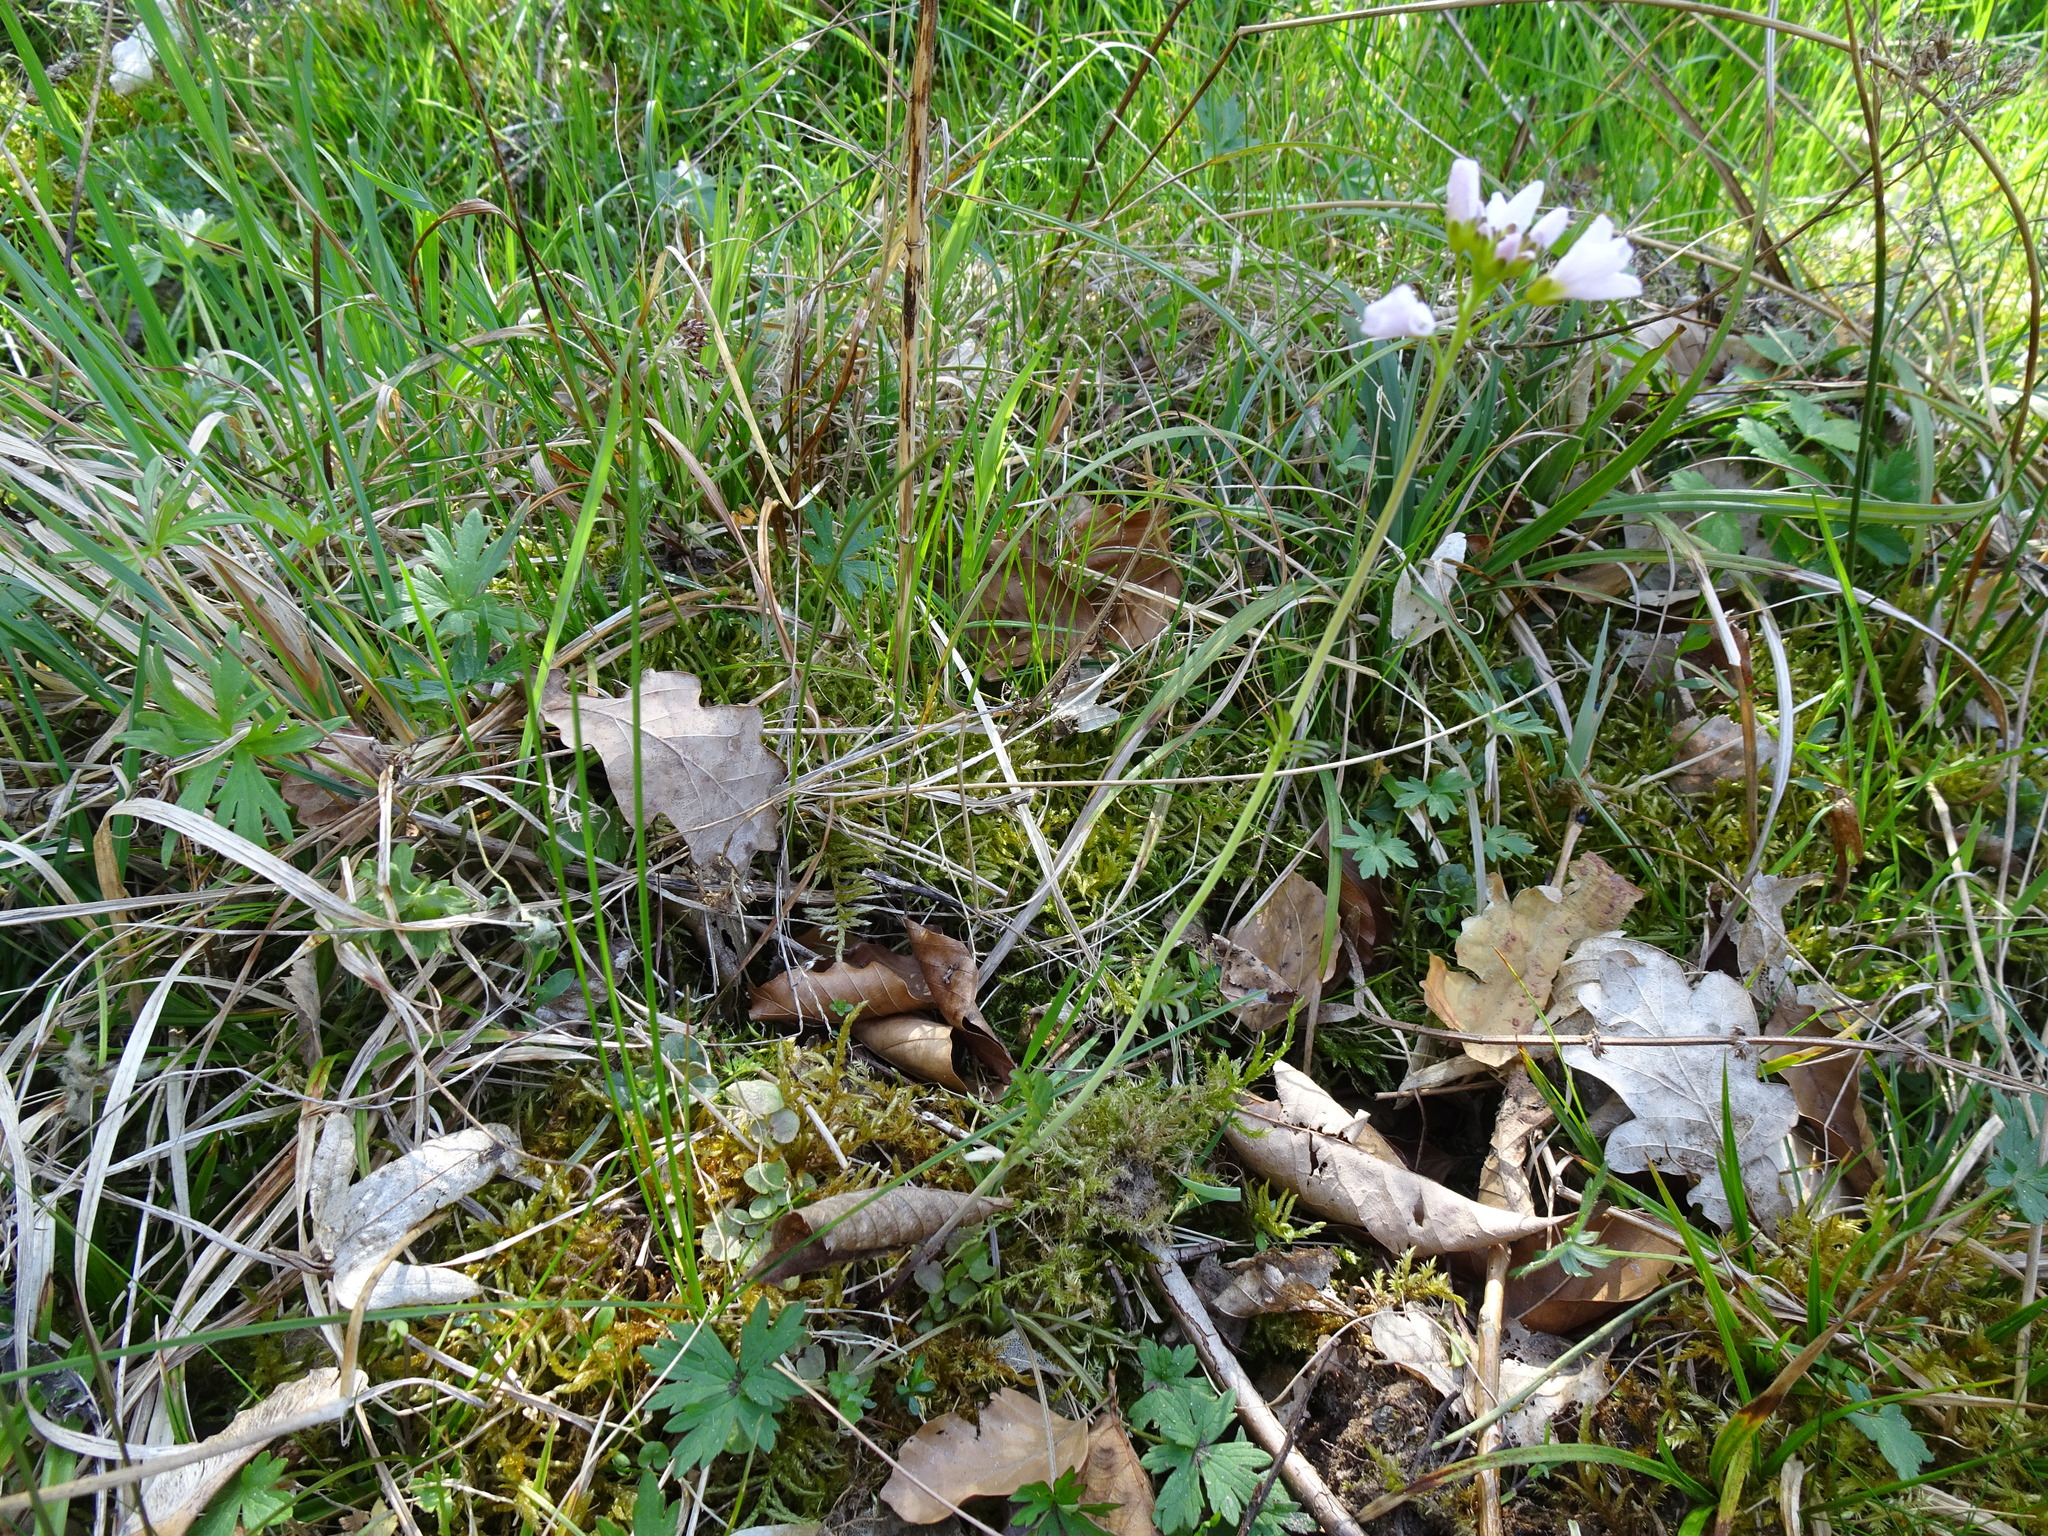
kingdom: Plantae
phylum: Tracheophyta
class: Magnoliopsida
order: Brassicales
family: Brassicaceae
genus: Cardamine
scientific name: Cardamine pratensis
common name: Cuckoo flower
